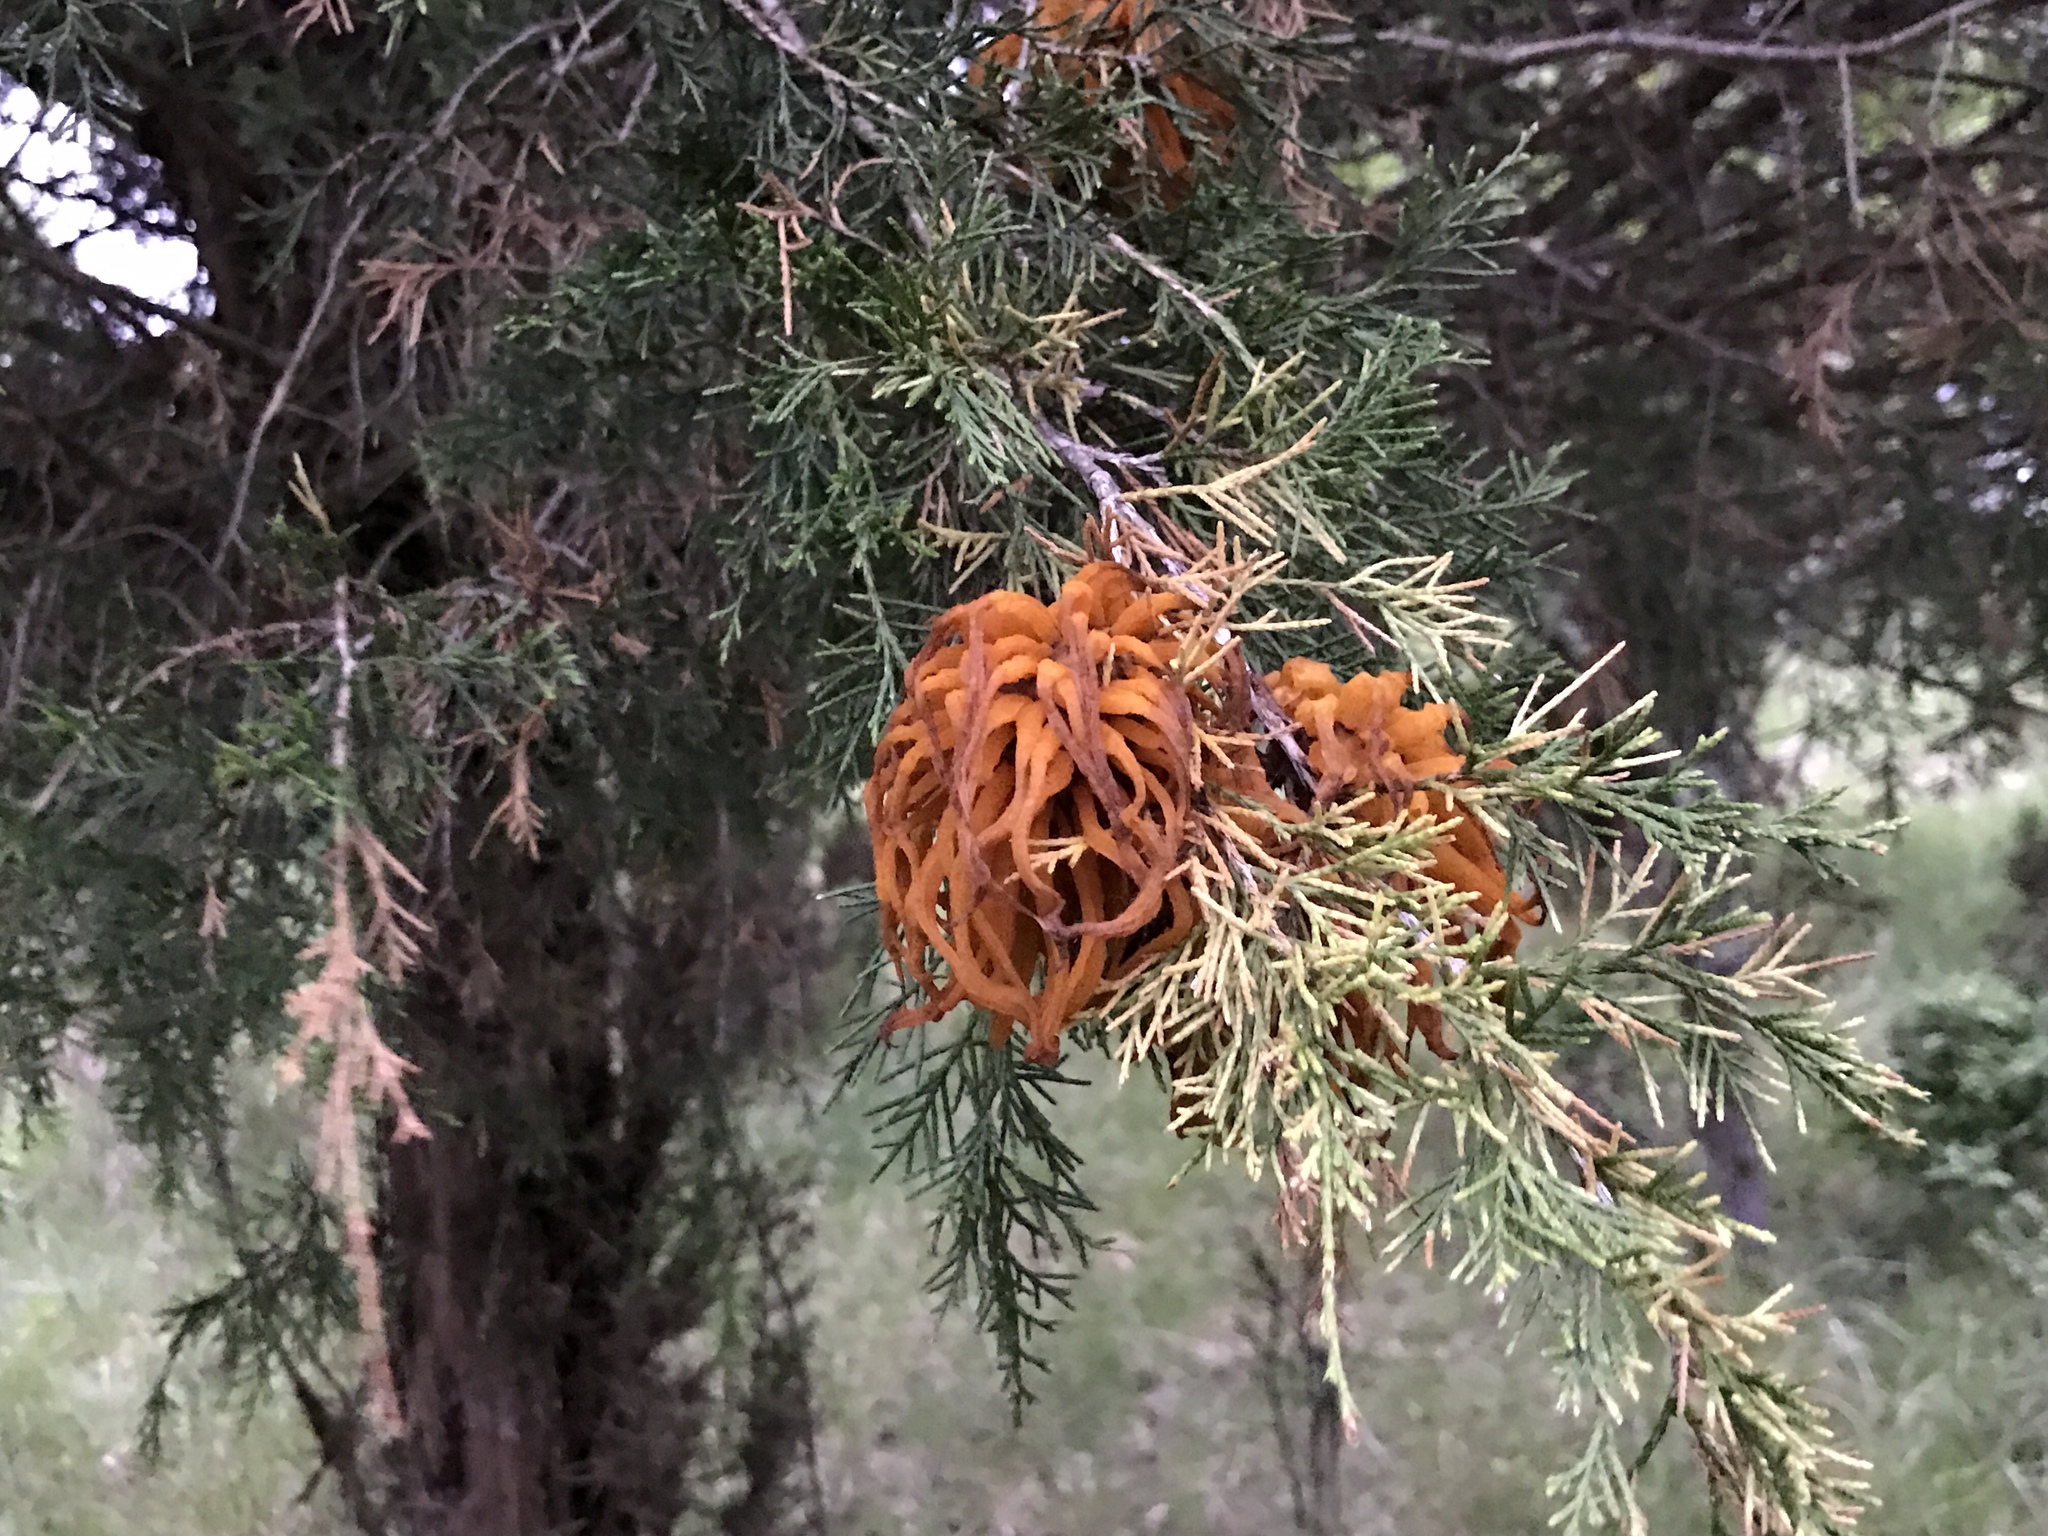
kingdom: Fungi
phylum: Basidiomycota
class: Pucciniomycetes
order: Pucciniales
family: Gymnosporangiaceae
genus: Gymnosporangium
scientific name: Gymnosporangium juniperi-virginianae
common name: Juniper-apple rust
